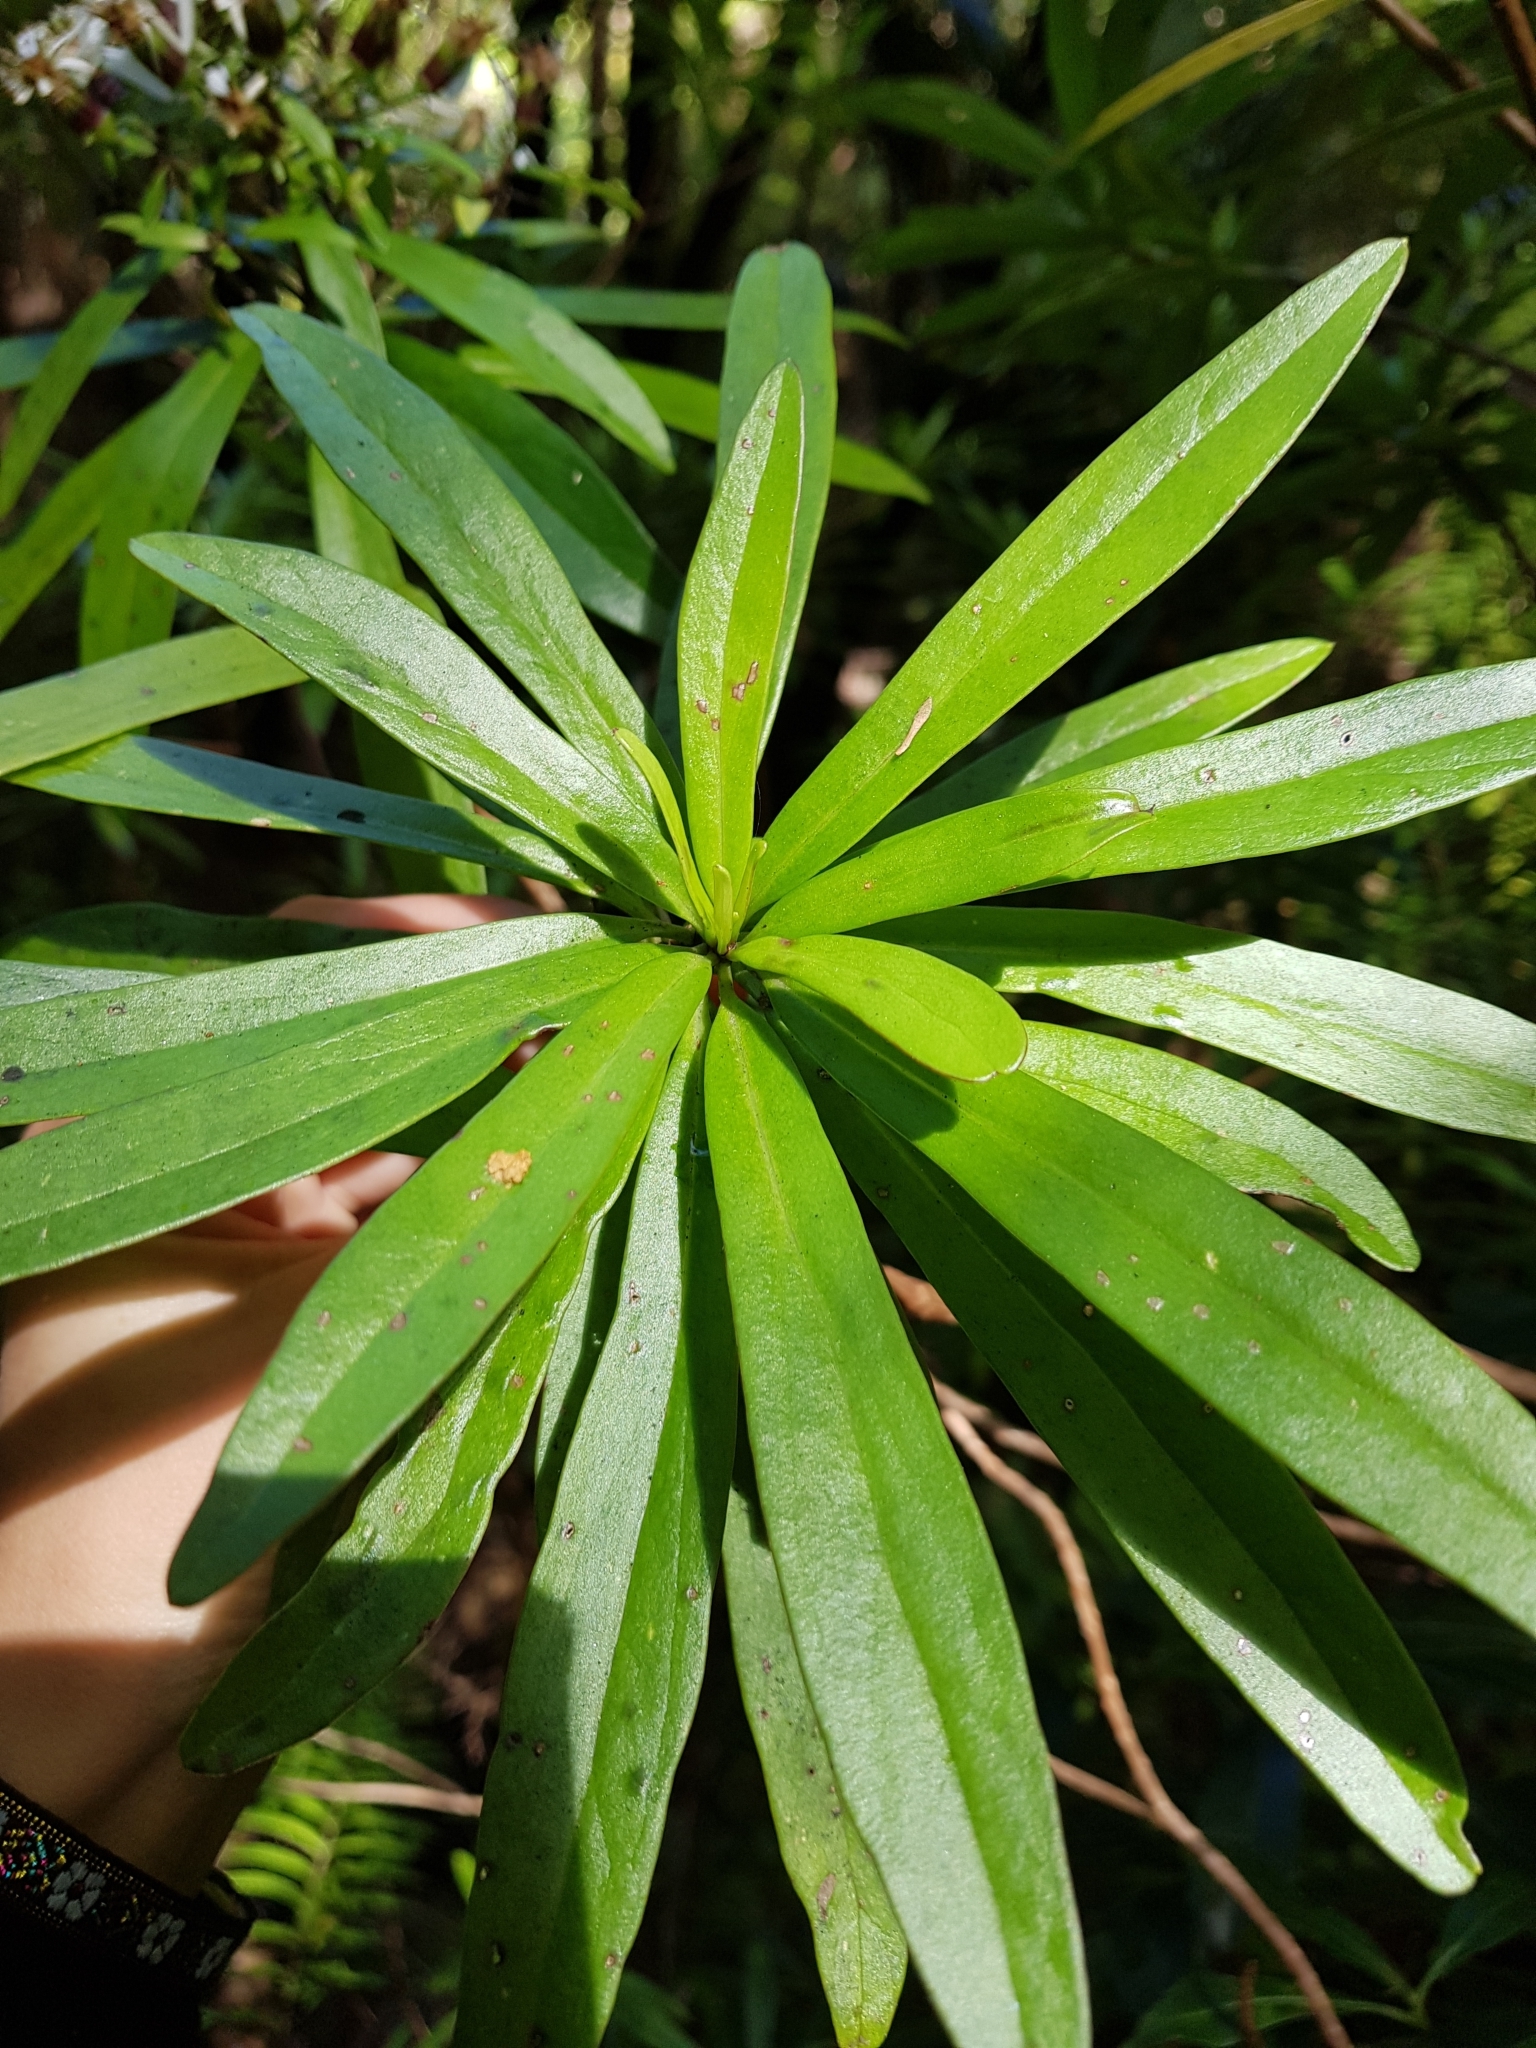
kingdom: Plantae
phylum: Tracheophyta
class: Magnoliopsida
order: Asterales
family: Asteraceae
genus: Brachyglottis
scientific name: Brachyglottis kirkii
